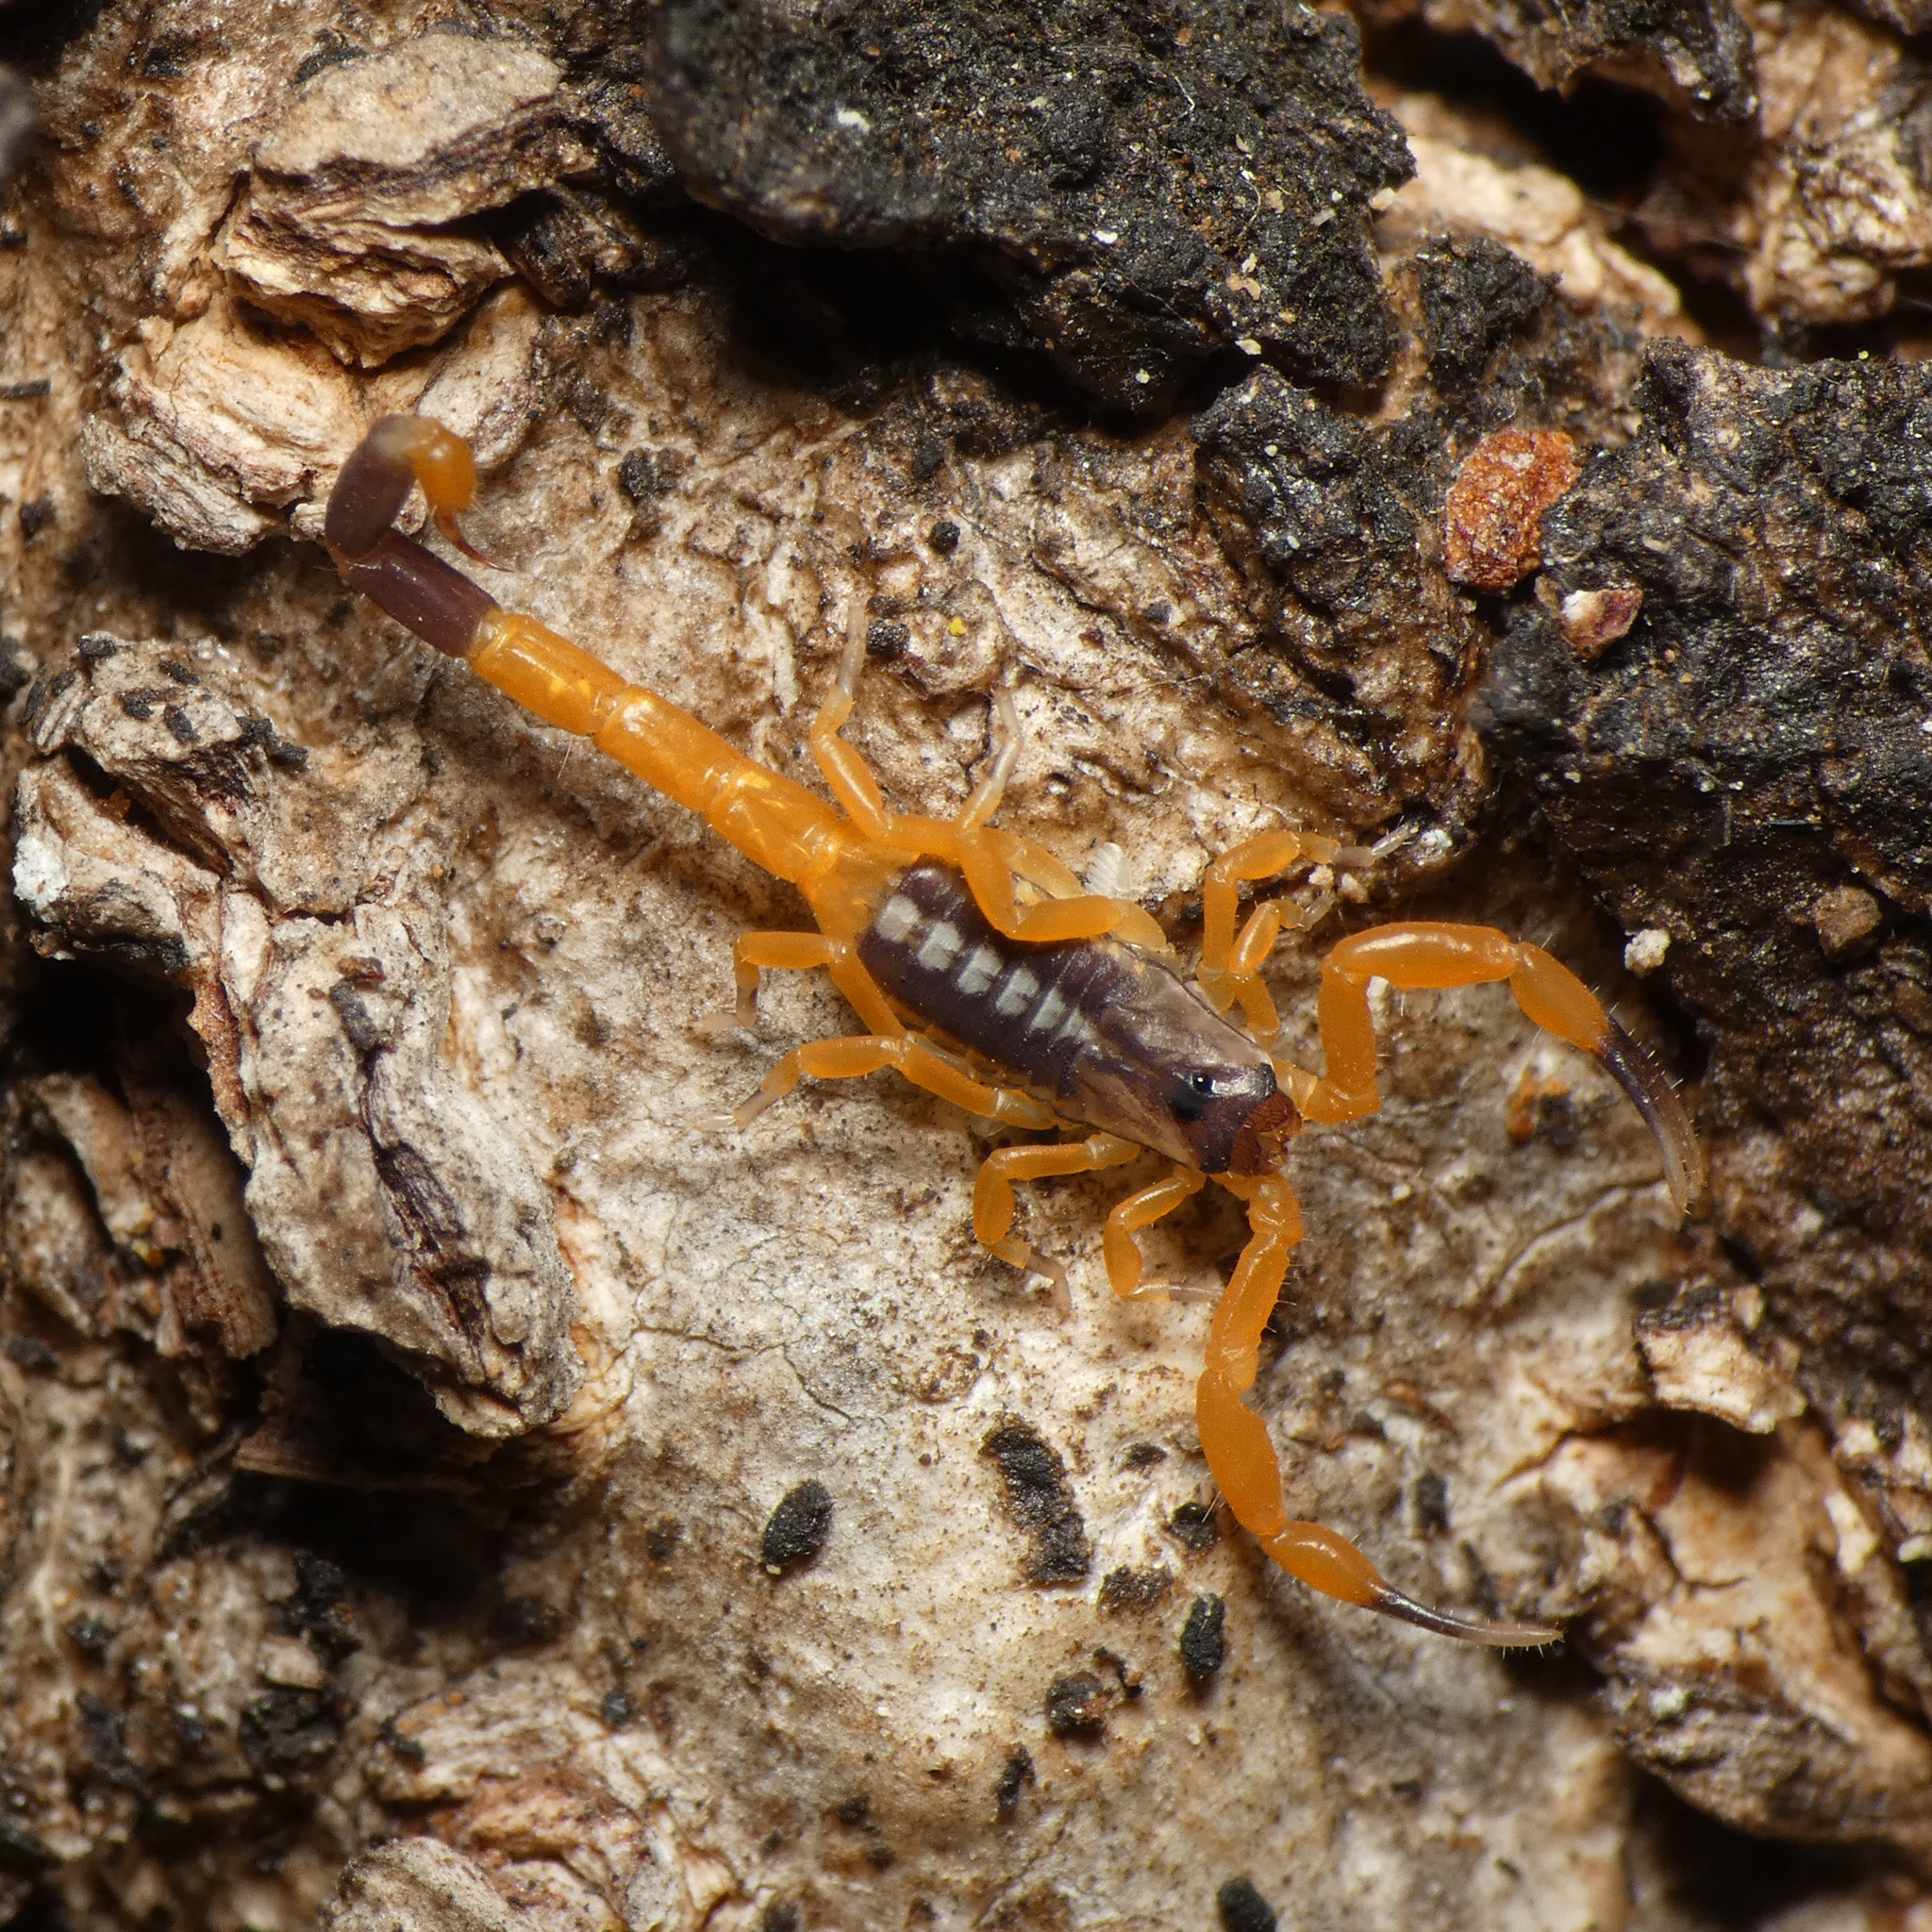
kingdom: Animalia
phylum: Arthropoda
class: Arachnida
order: Scorpiones
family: Buthidae
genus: Uroplectes
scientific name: Uroplectes xanthogrammus
